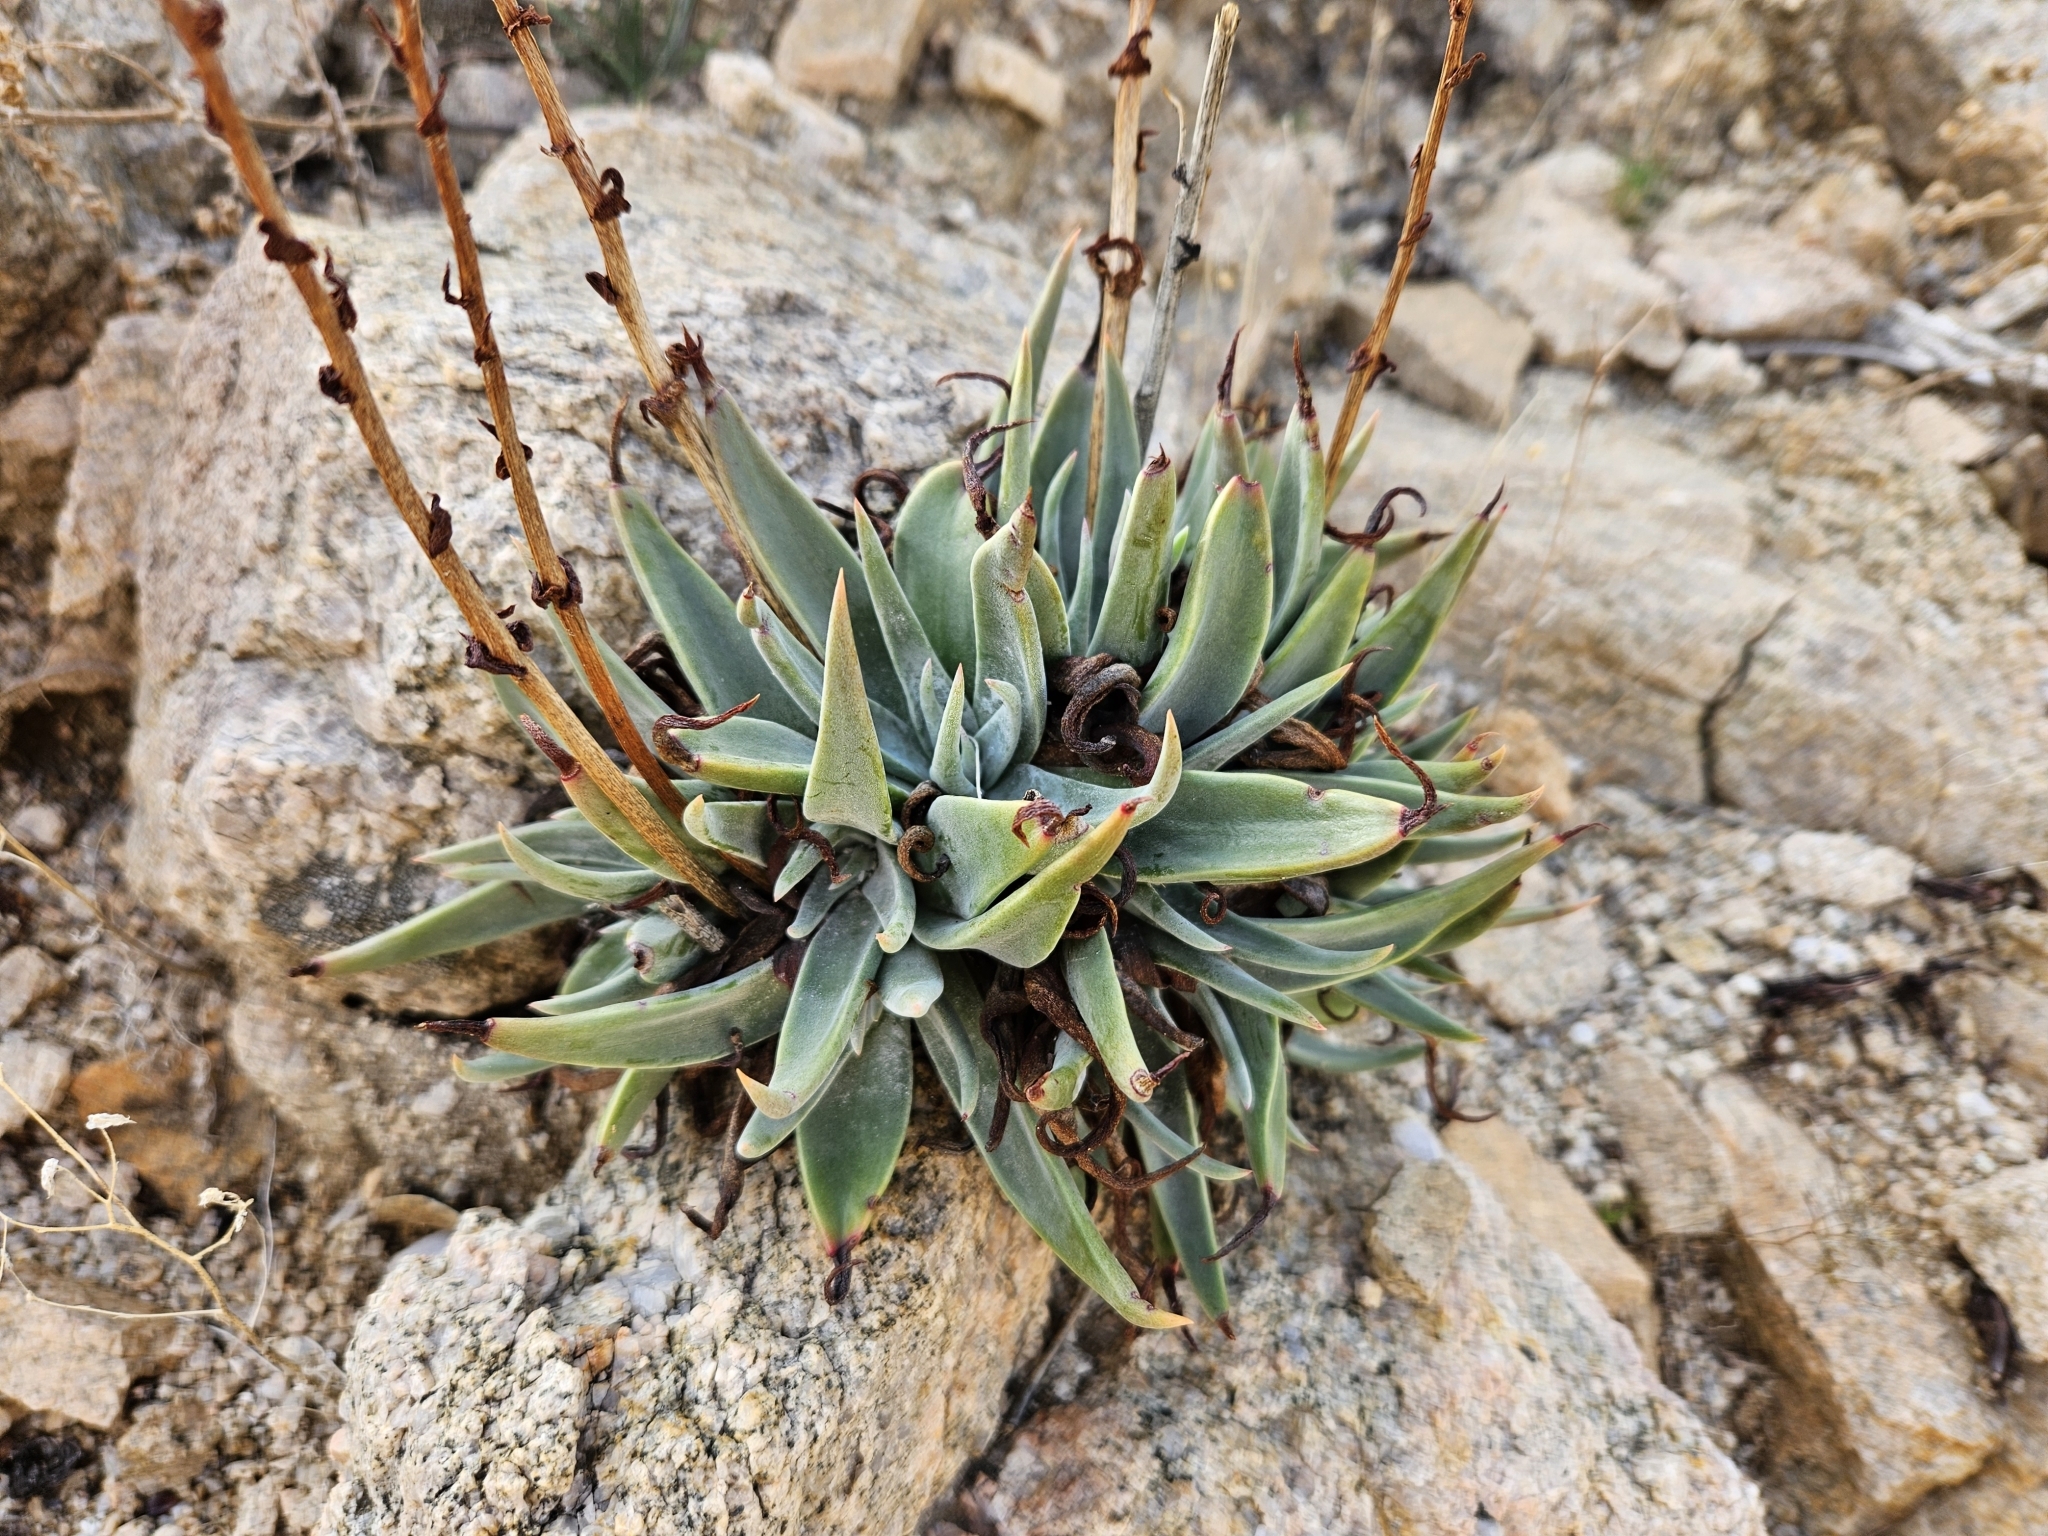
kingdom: Plantae
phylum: Tracheophyta
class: Magnoliopsida
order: Saxifragales
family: Crassulaceae
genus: Dudleya
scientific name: Dudleya saxosa
